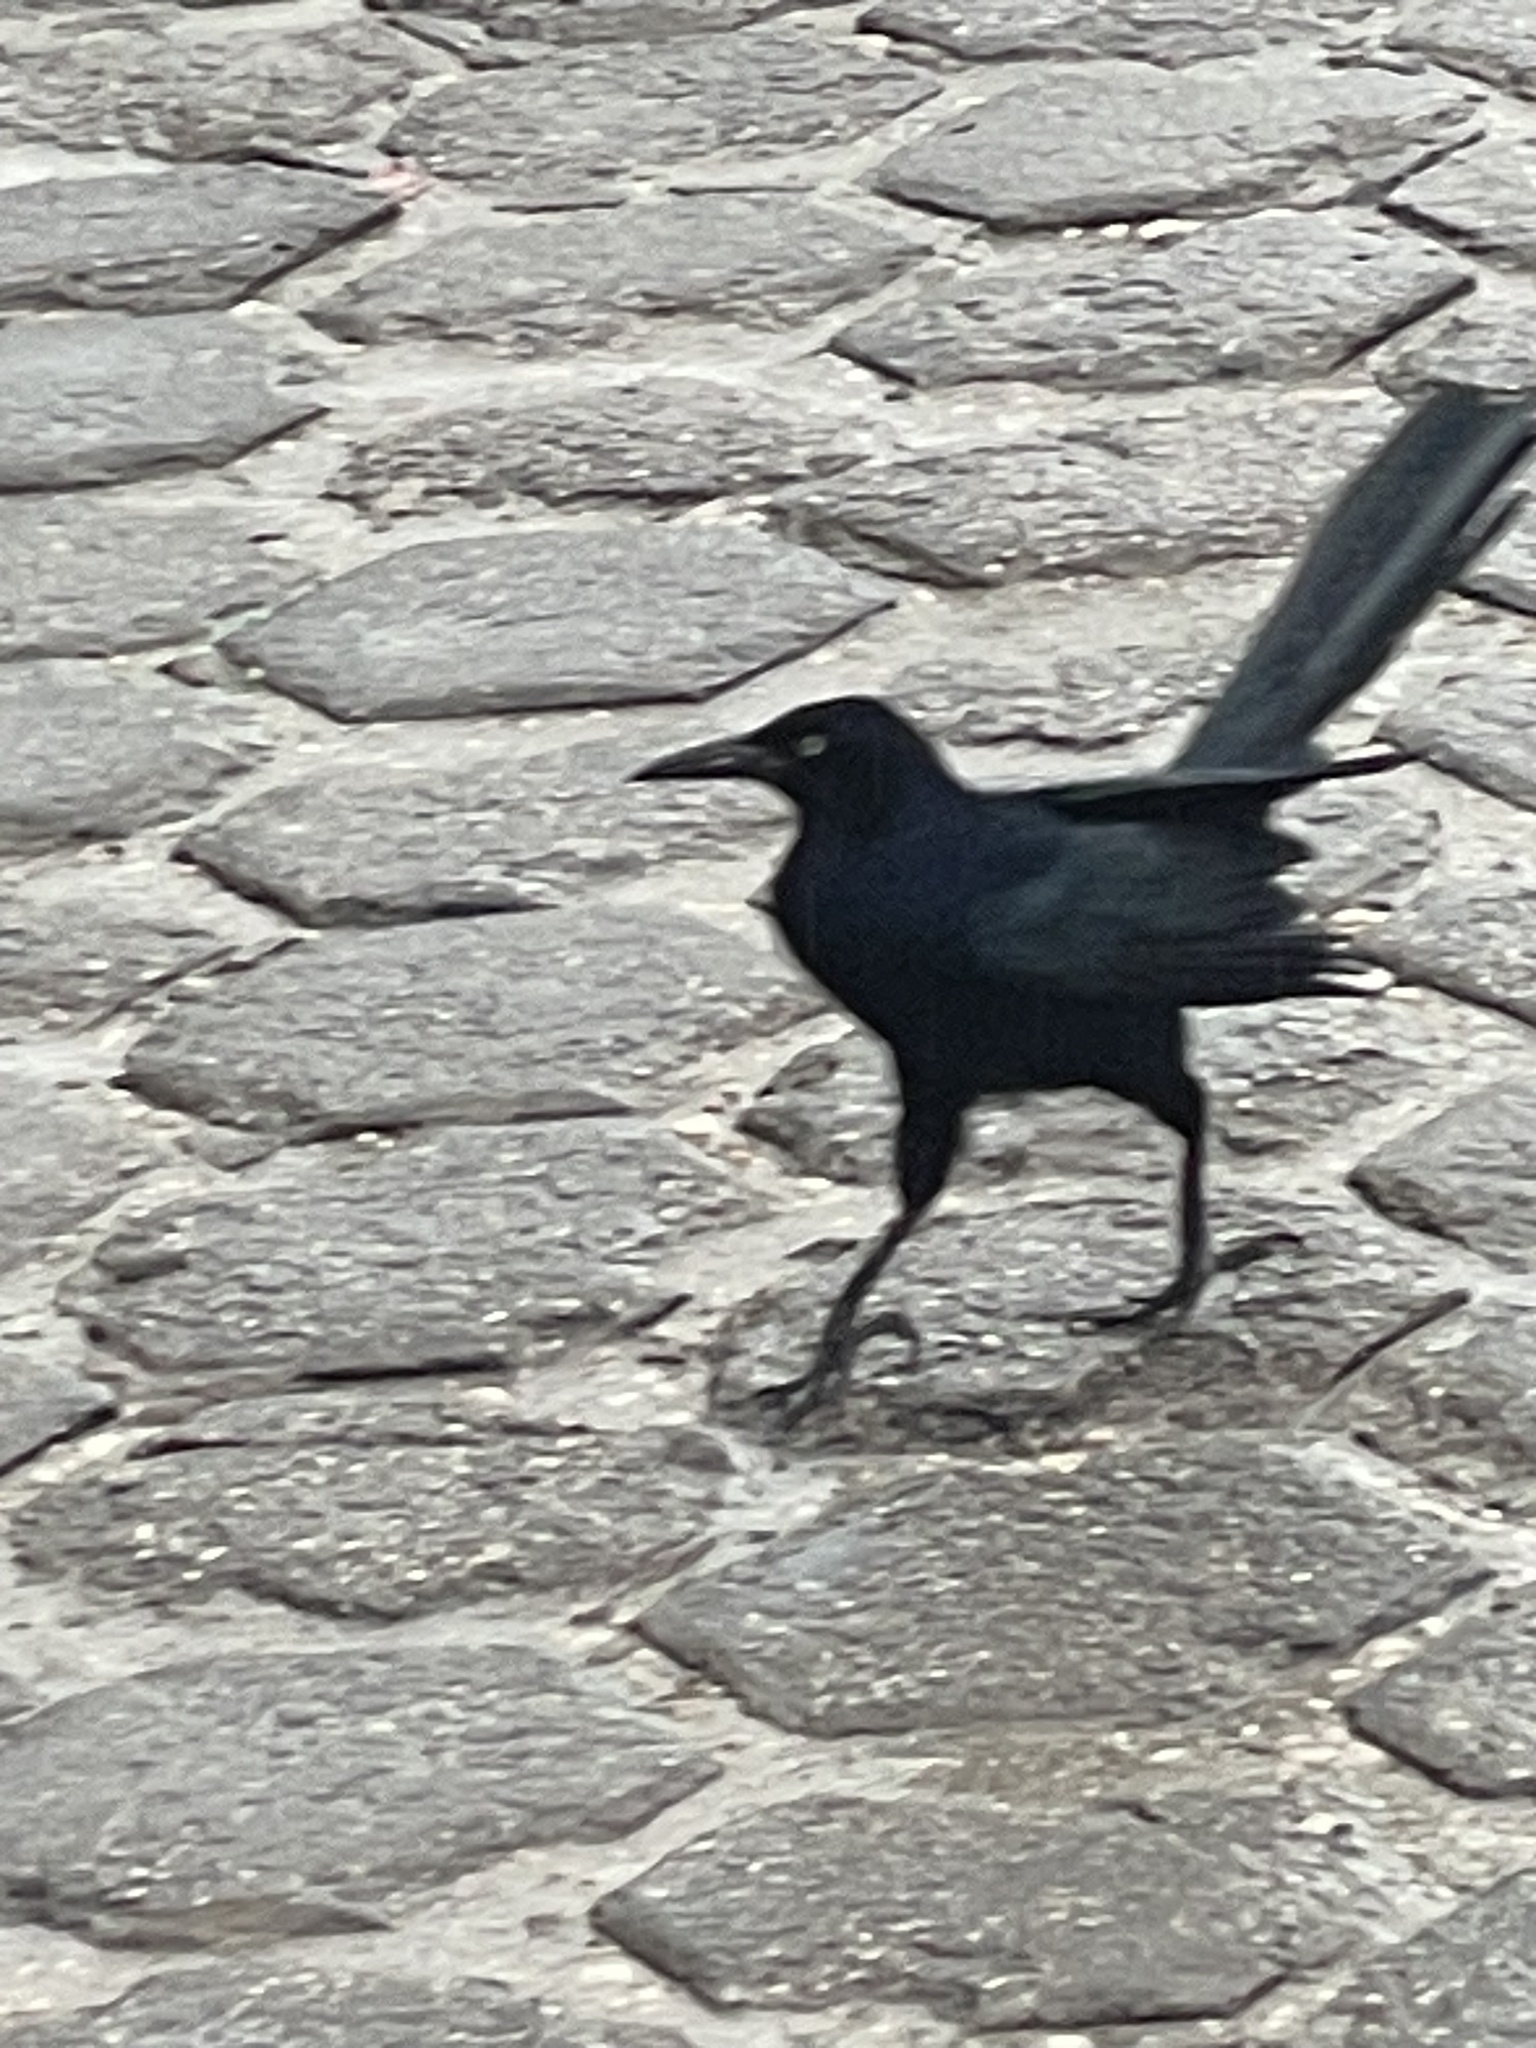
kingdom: Animalia
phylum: Chordata
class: Aves
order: Passeriformes
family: Icteridae
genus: Quiscalus
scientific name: Quiscalus mexicanus
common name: Great-tailed grackle
